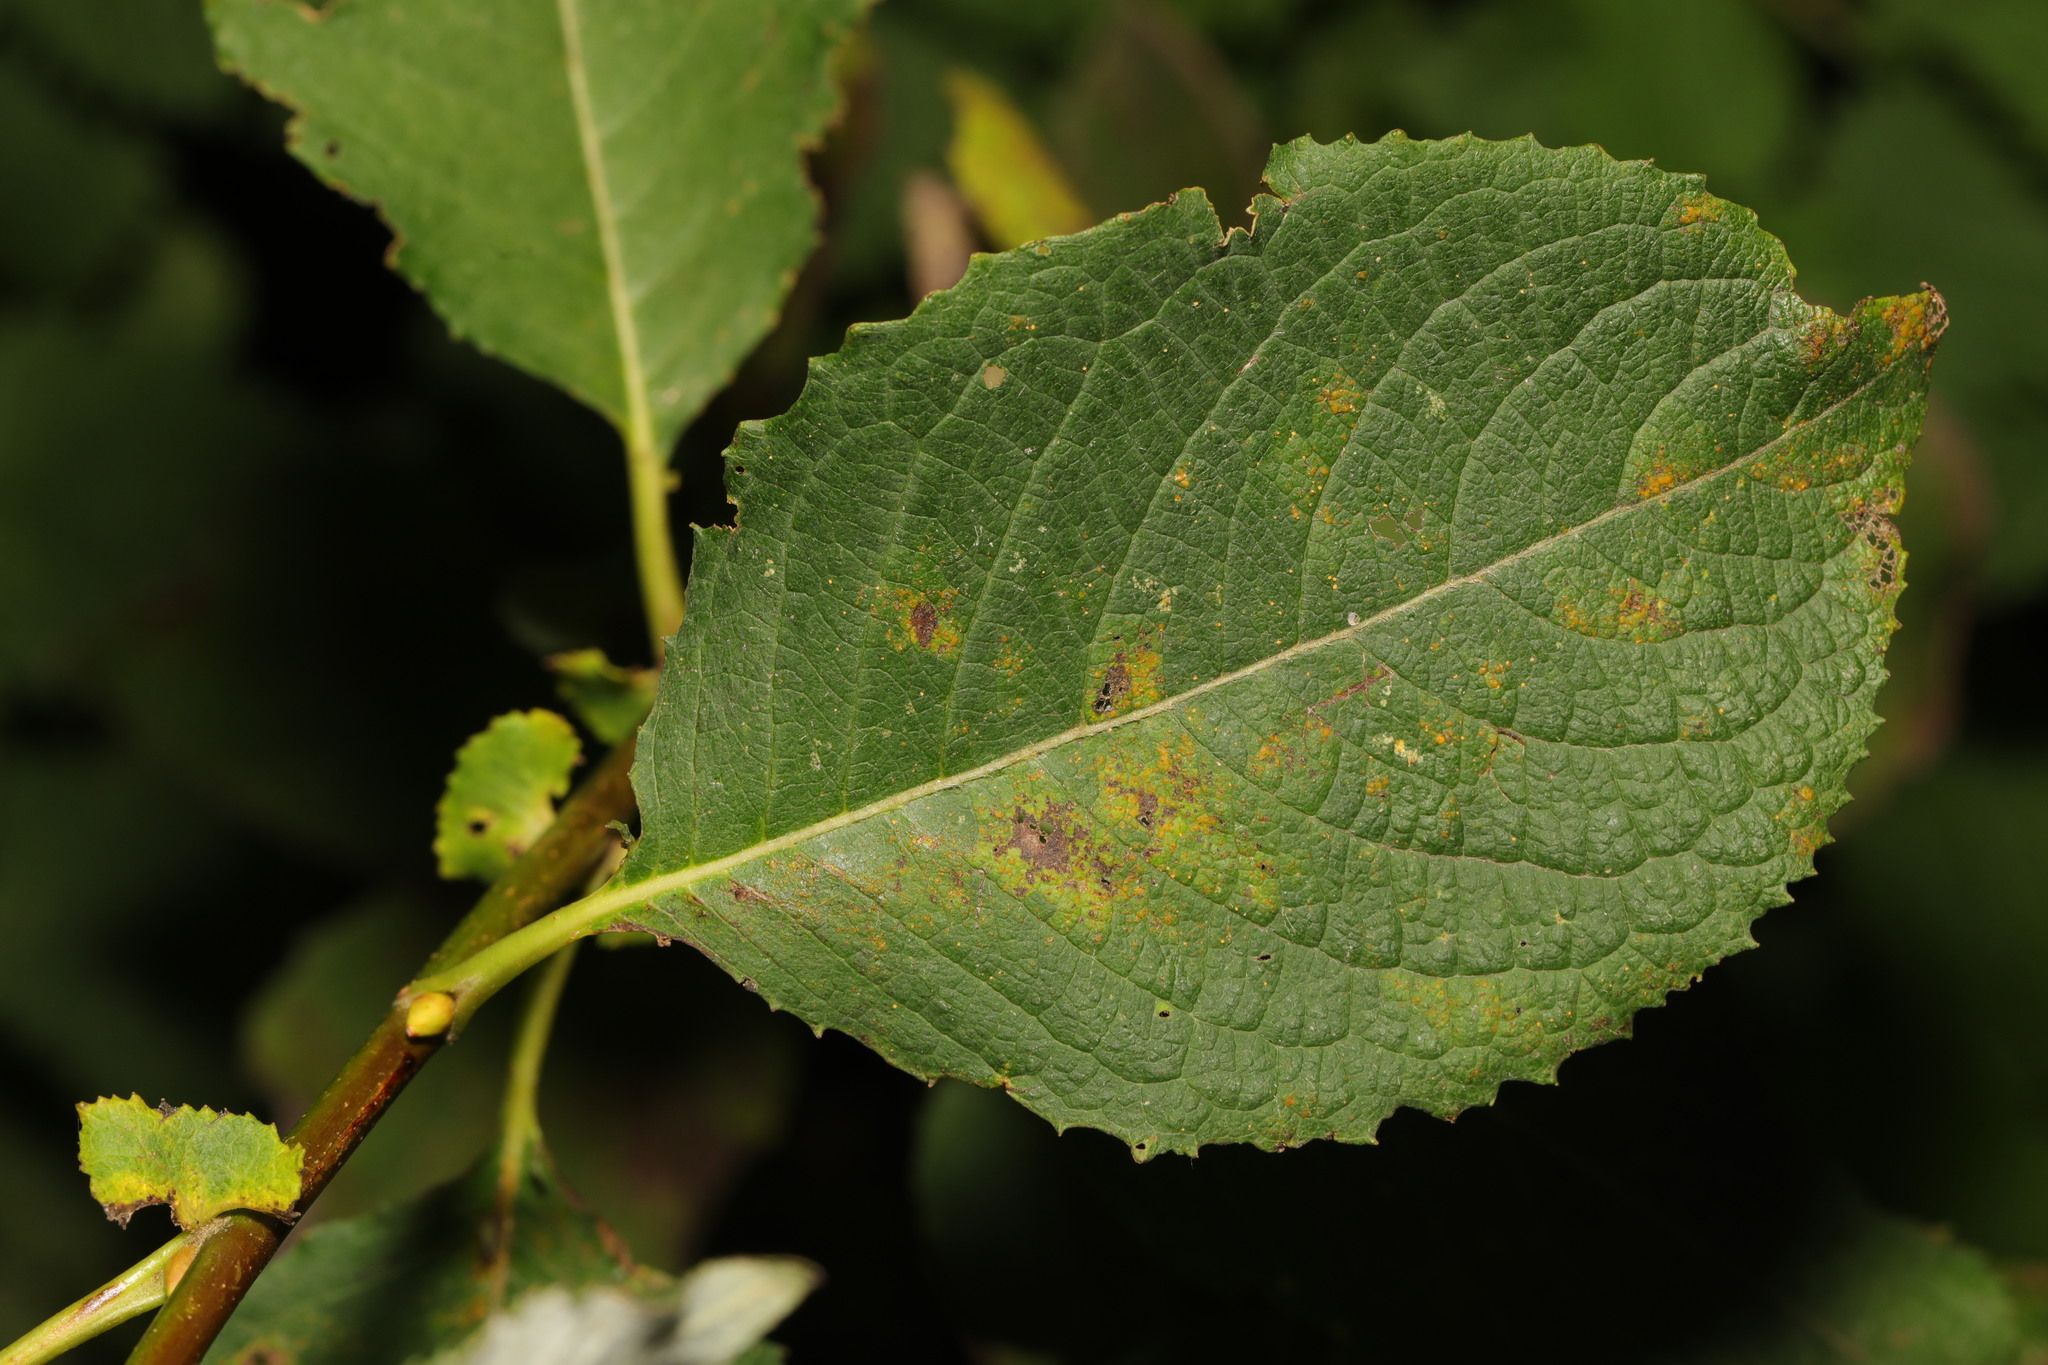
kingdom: Plantae
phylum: Tracheophyta
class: Magnoliopsida
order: Malpighiales
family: Salicaceae
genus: Salix
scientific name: Salix caprea
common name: Goat willow
